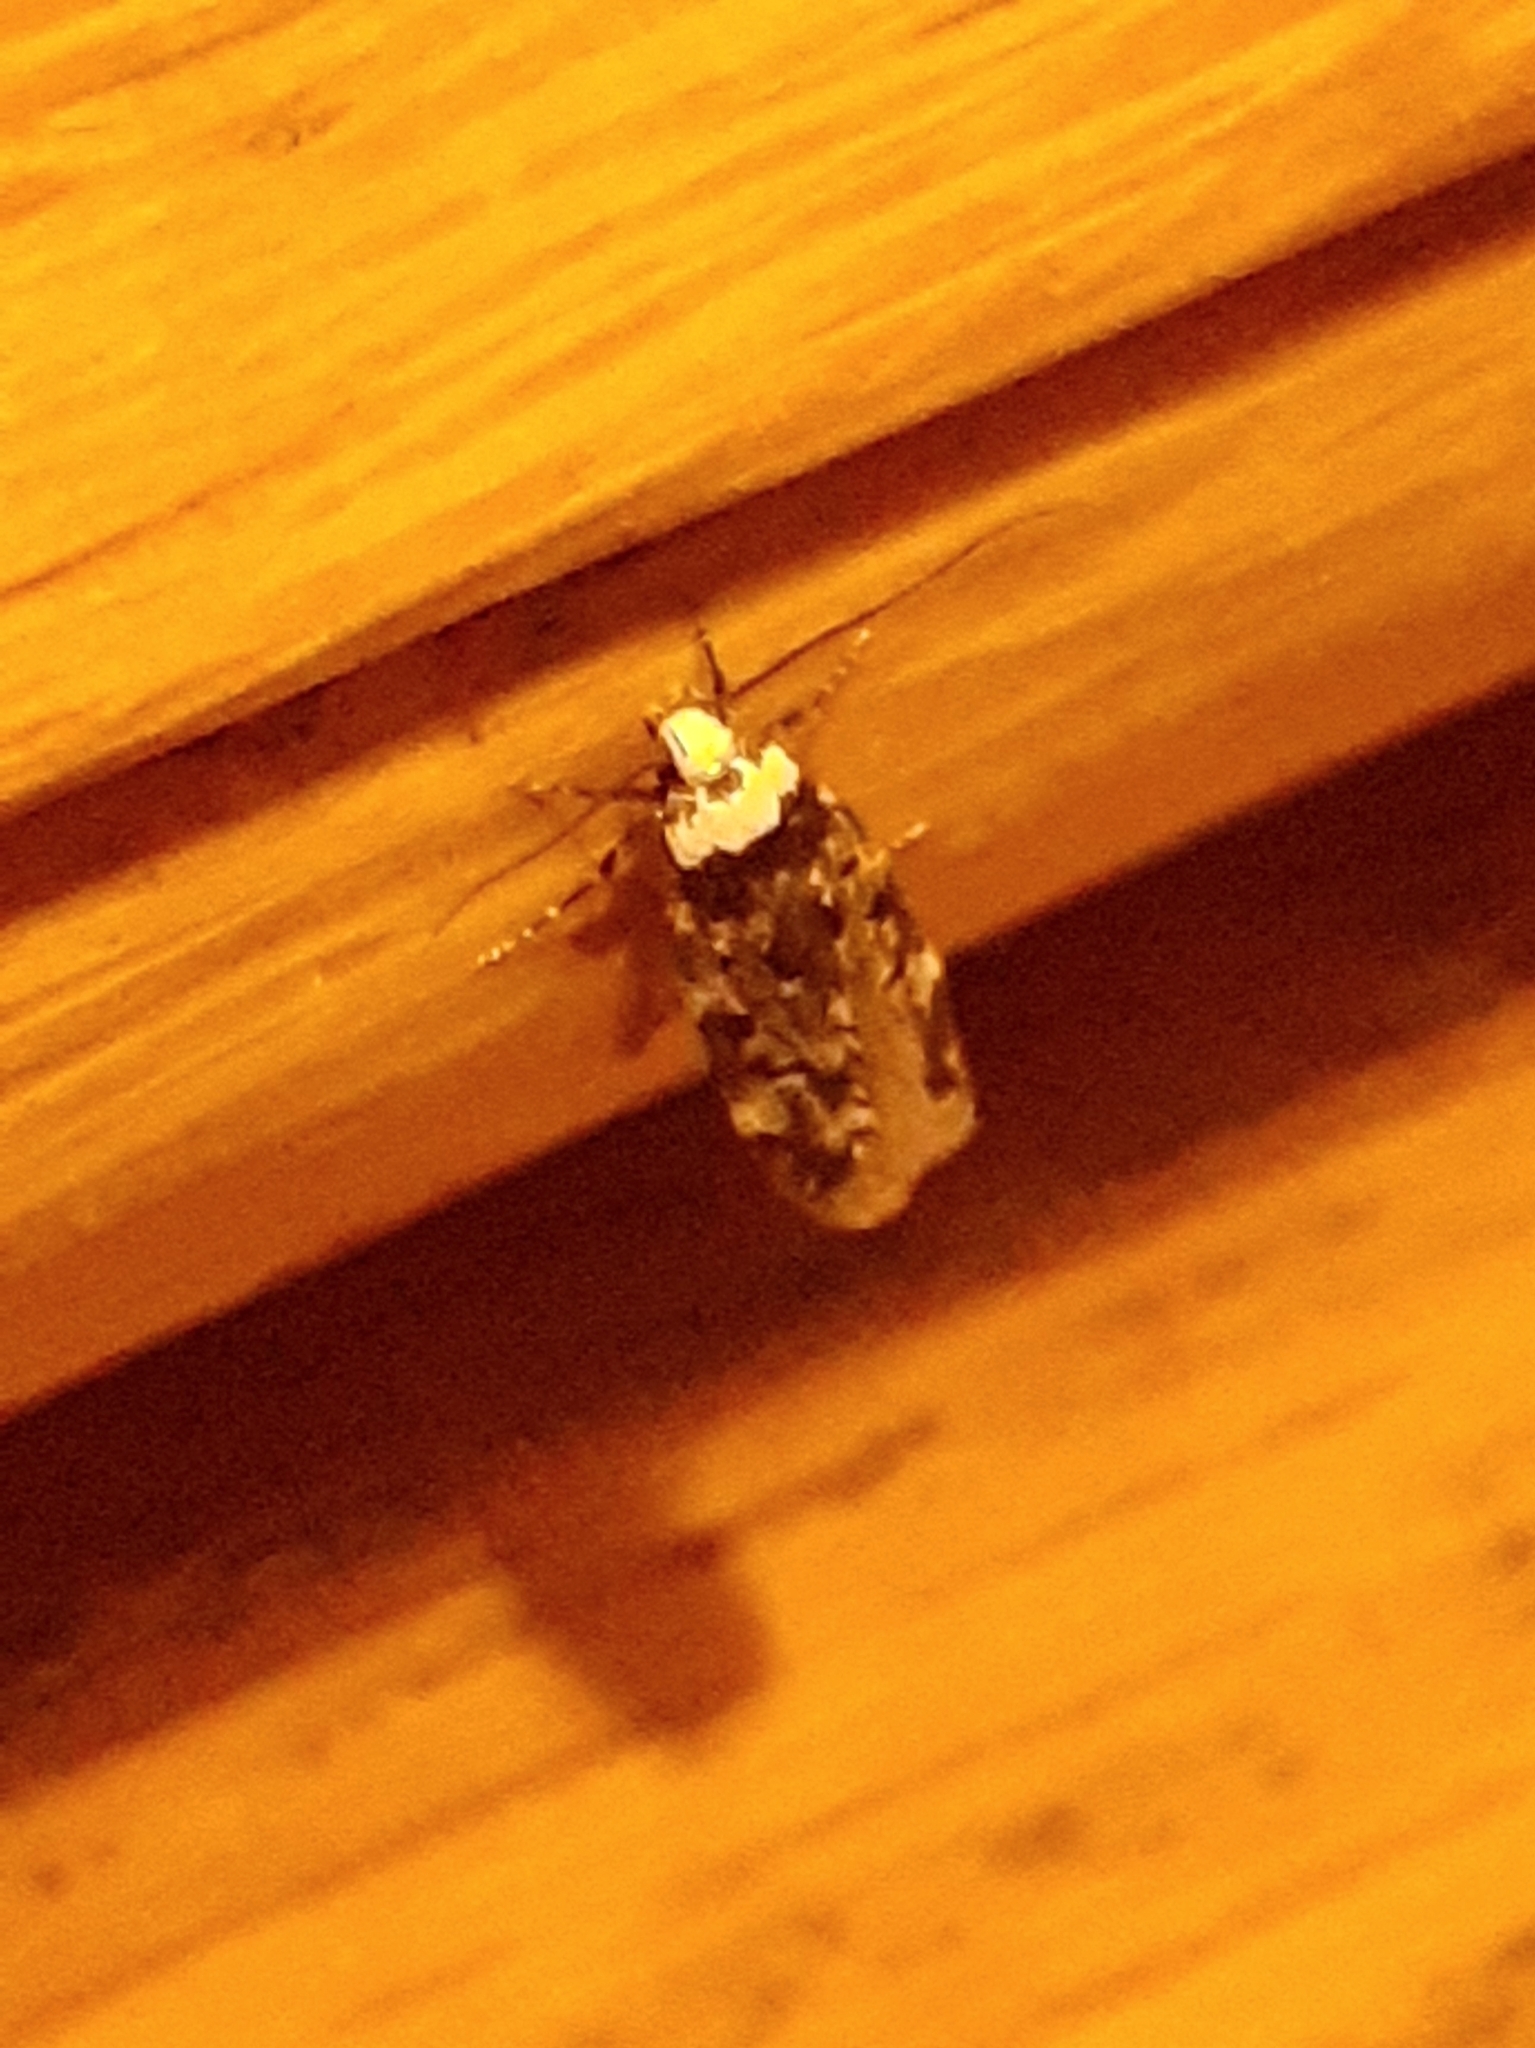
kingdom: Animalia
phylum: Arthropoda
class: Insecta
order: Lepidoptera
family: Oecophoridae
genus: Endrosis
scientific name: Endrosis sarcitrella
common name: White-shouldered house moth
